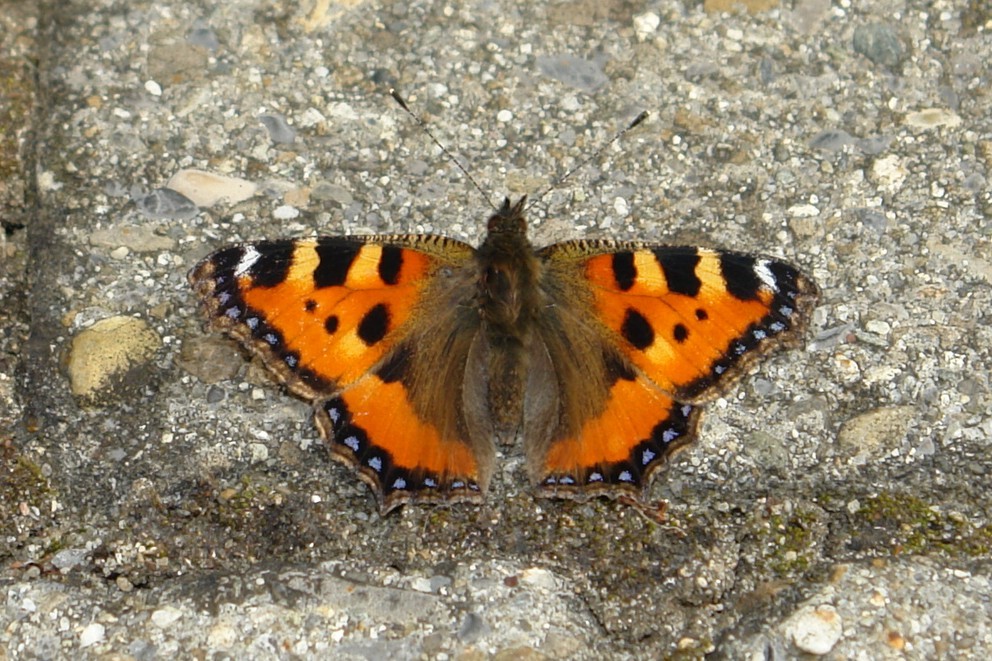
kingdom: Animalia
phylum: Arthropoda
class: Insecta
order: Lepidoptera
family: Nymphalidae
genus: Aglais
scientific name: Aglais urticae
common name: Small tortoiseshell
